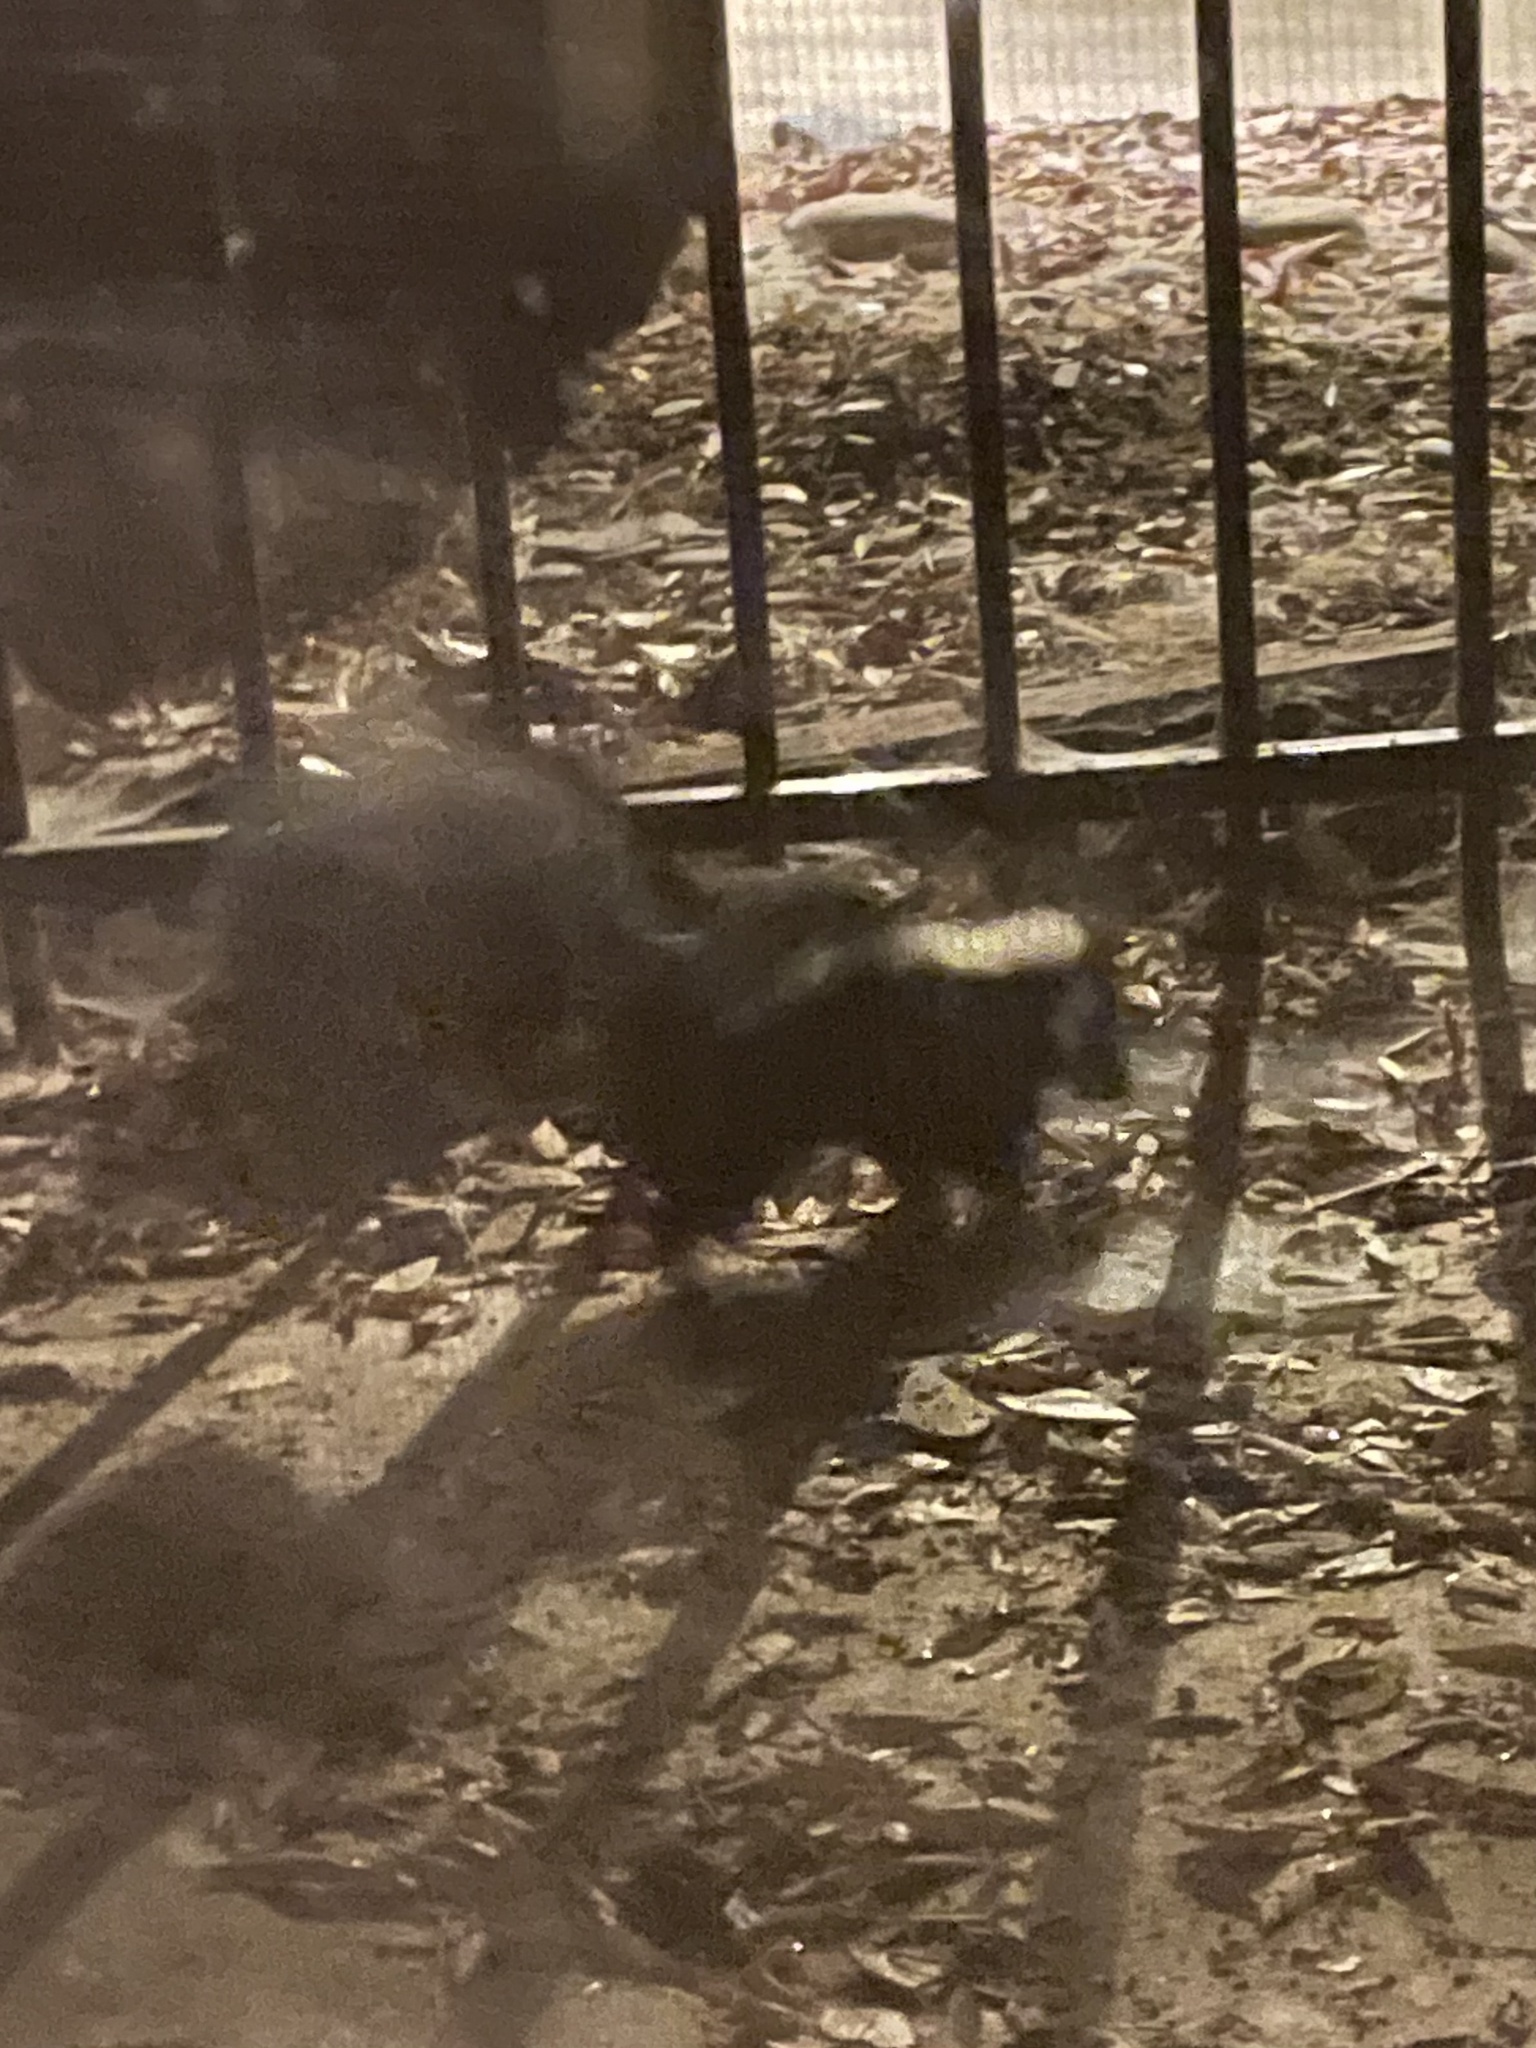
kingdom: Animalia
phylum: Chordata
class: Mammalia
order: Carnivora
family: Mephitidae
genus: Mephitis
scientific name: Mephitis mephitis
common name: Striped skunk
